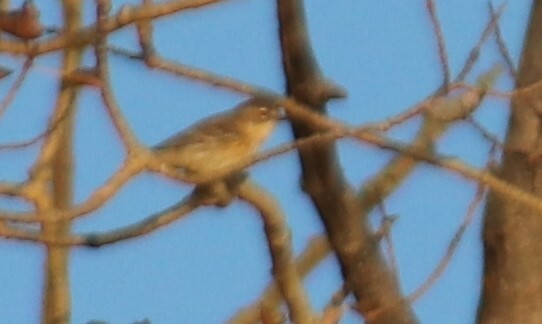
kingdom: Animalia
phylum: Chordata
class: Aves
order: Passeriformes
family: Parulidae
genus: Setophaga
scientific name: Setophaga coronata
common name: Myrtle warbler
